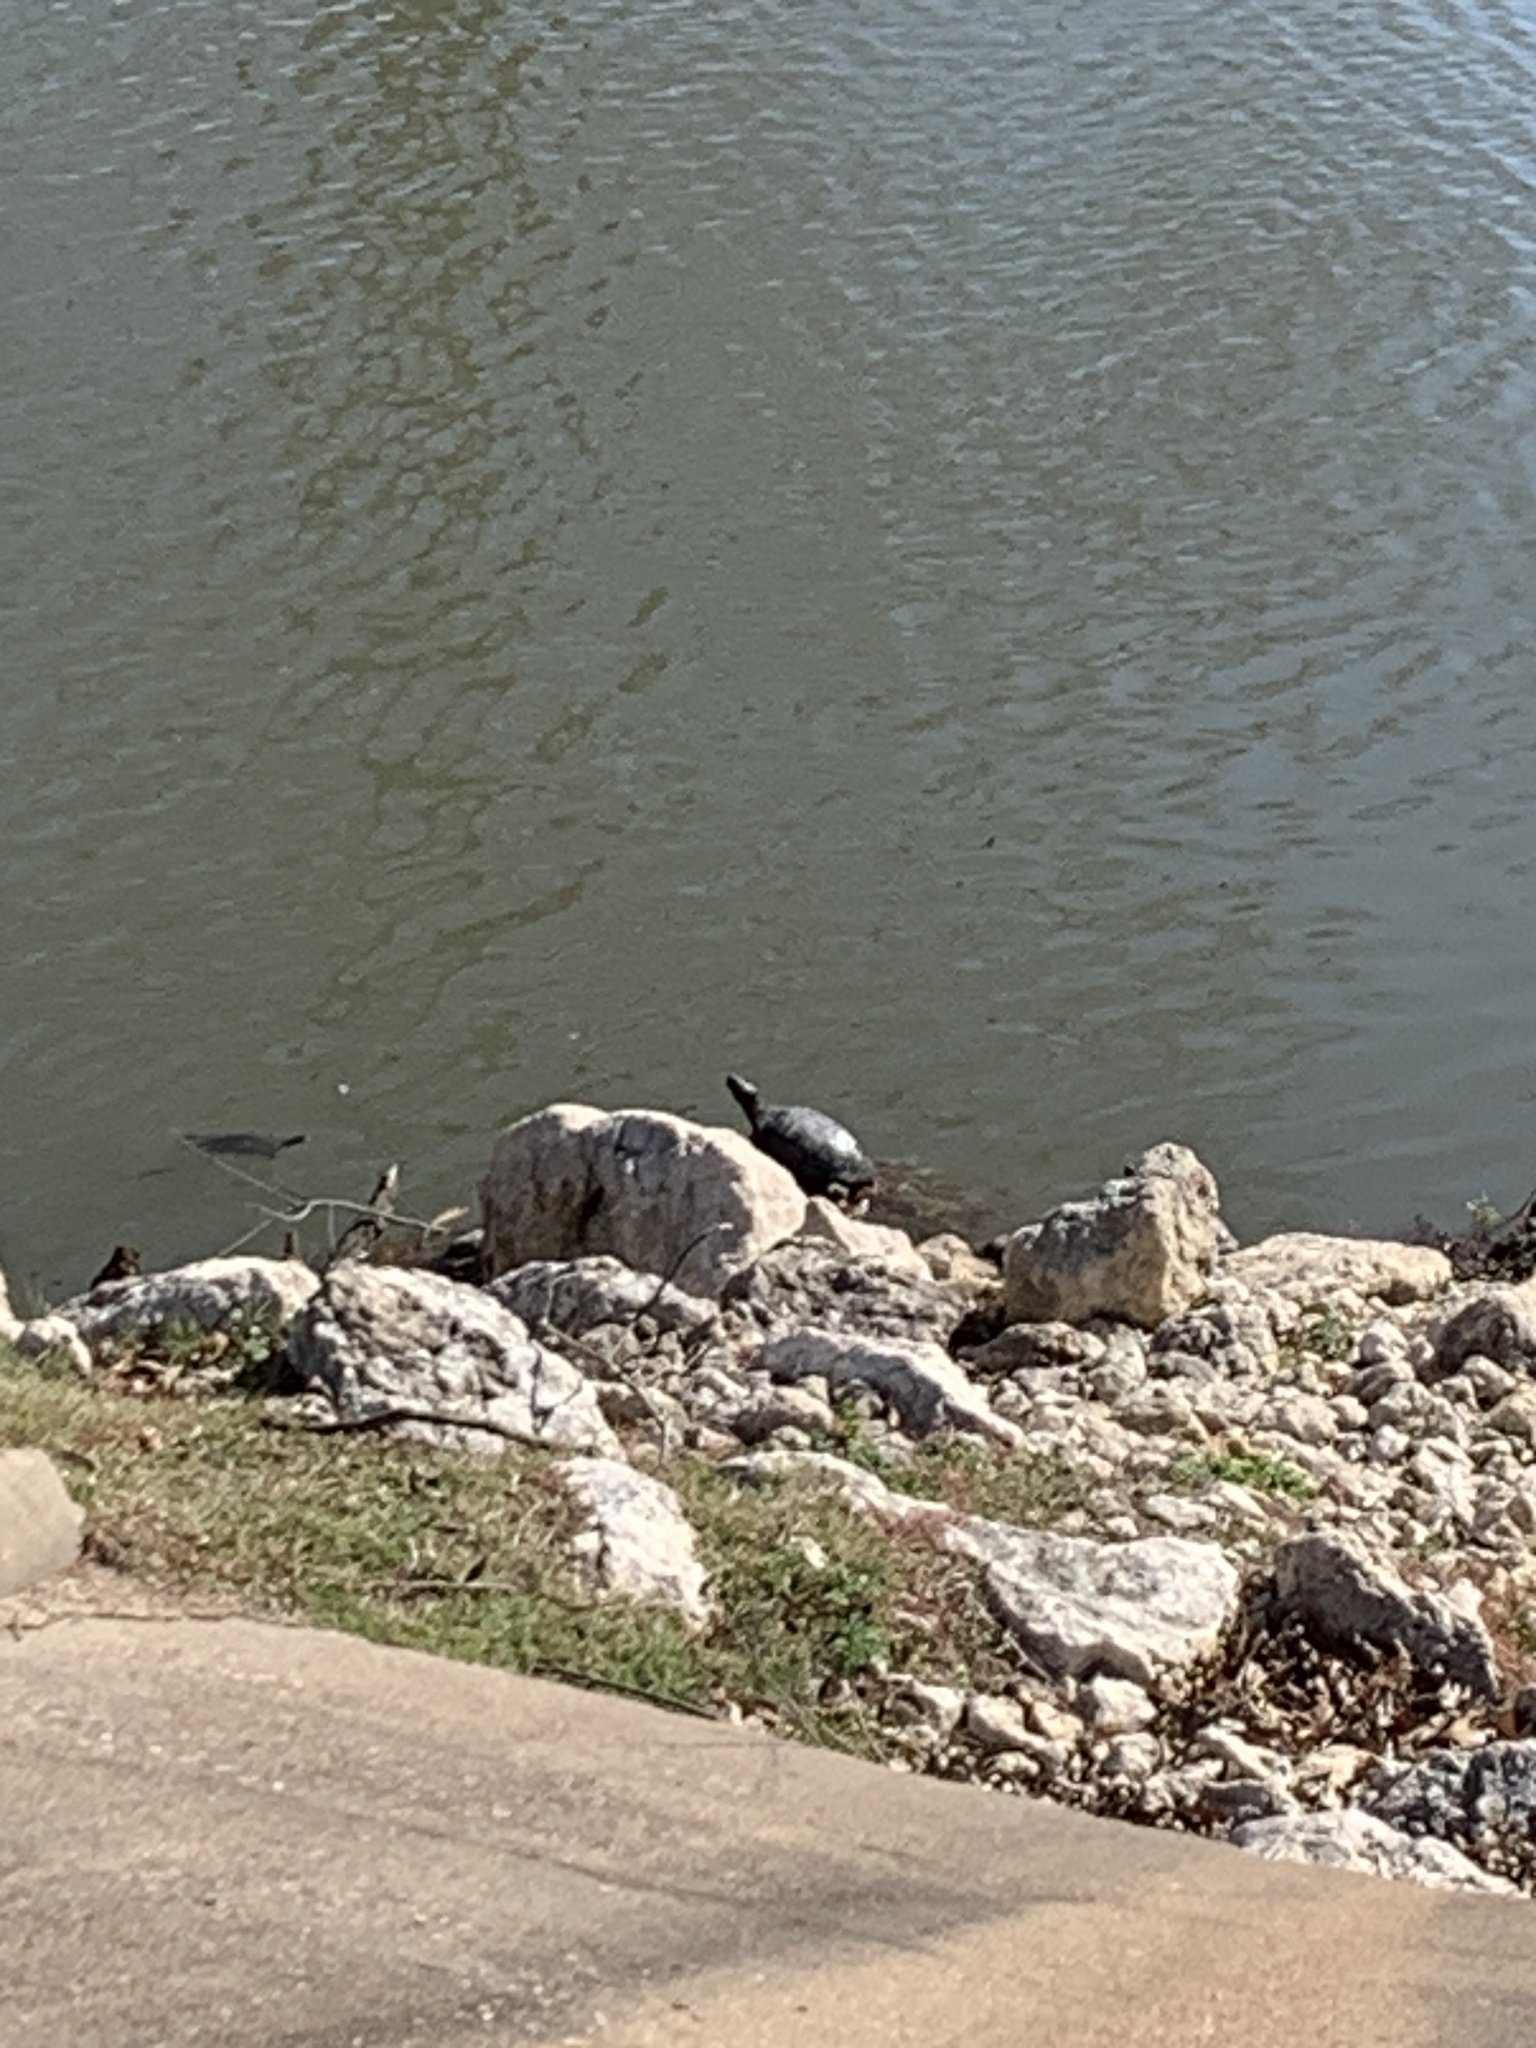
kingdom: Animalia
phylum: Chordata
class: Testudines
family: Emydidae
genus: Trachemys
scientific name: Trachemys scripta
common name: Slider
